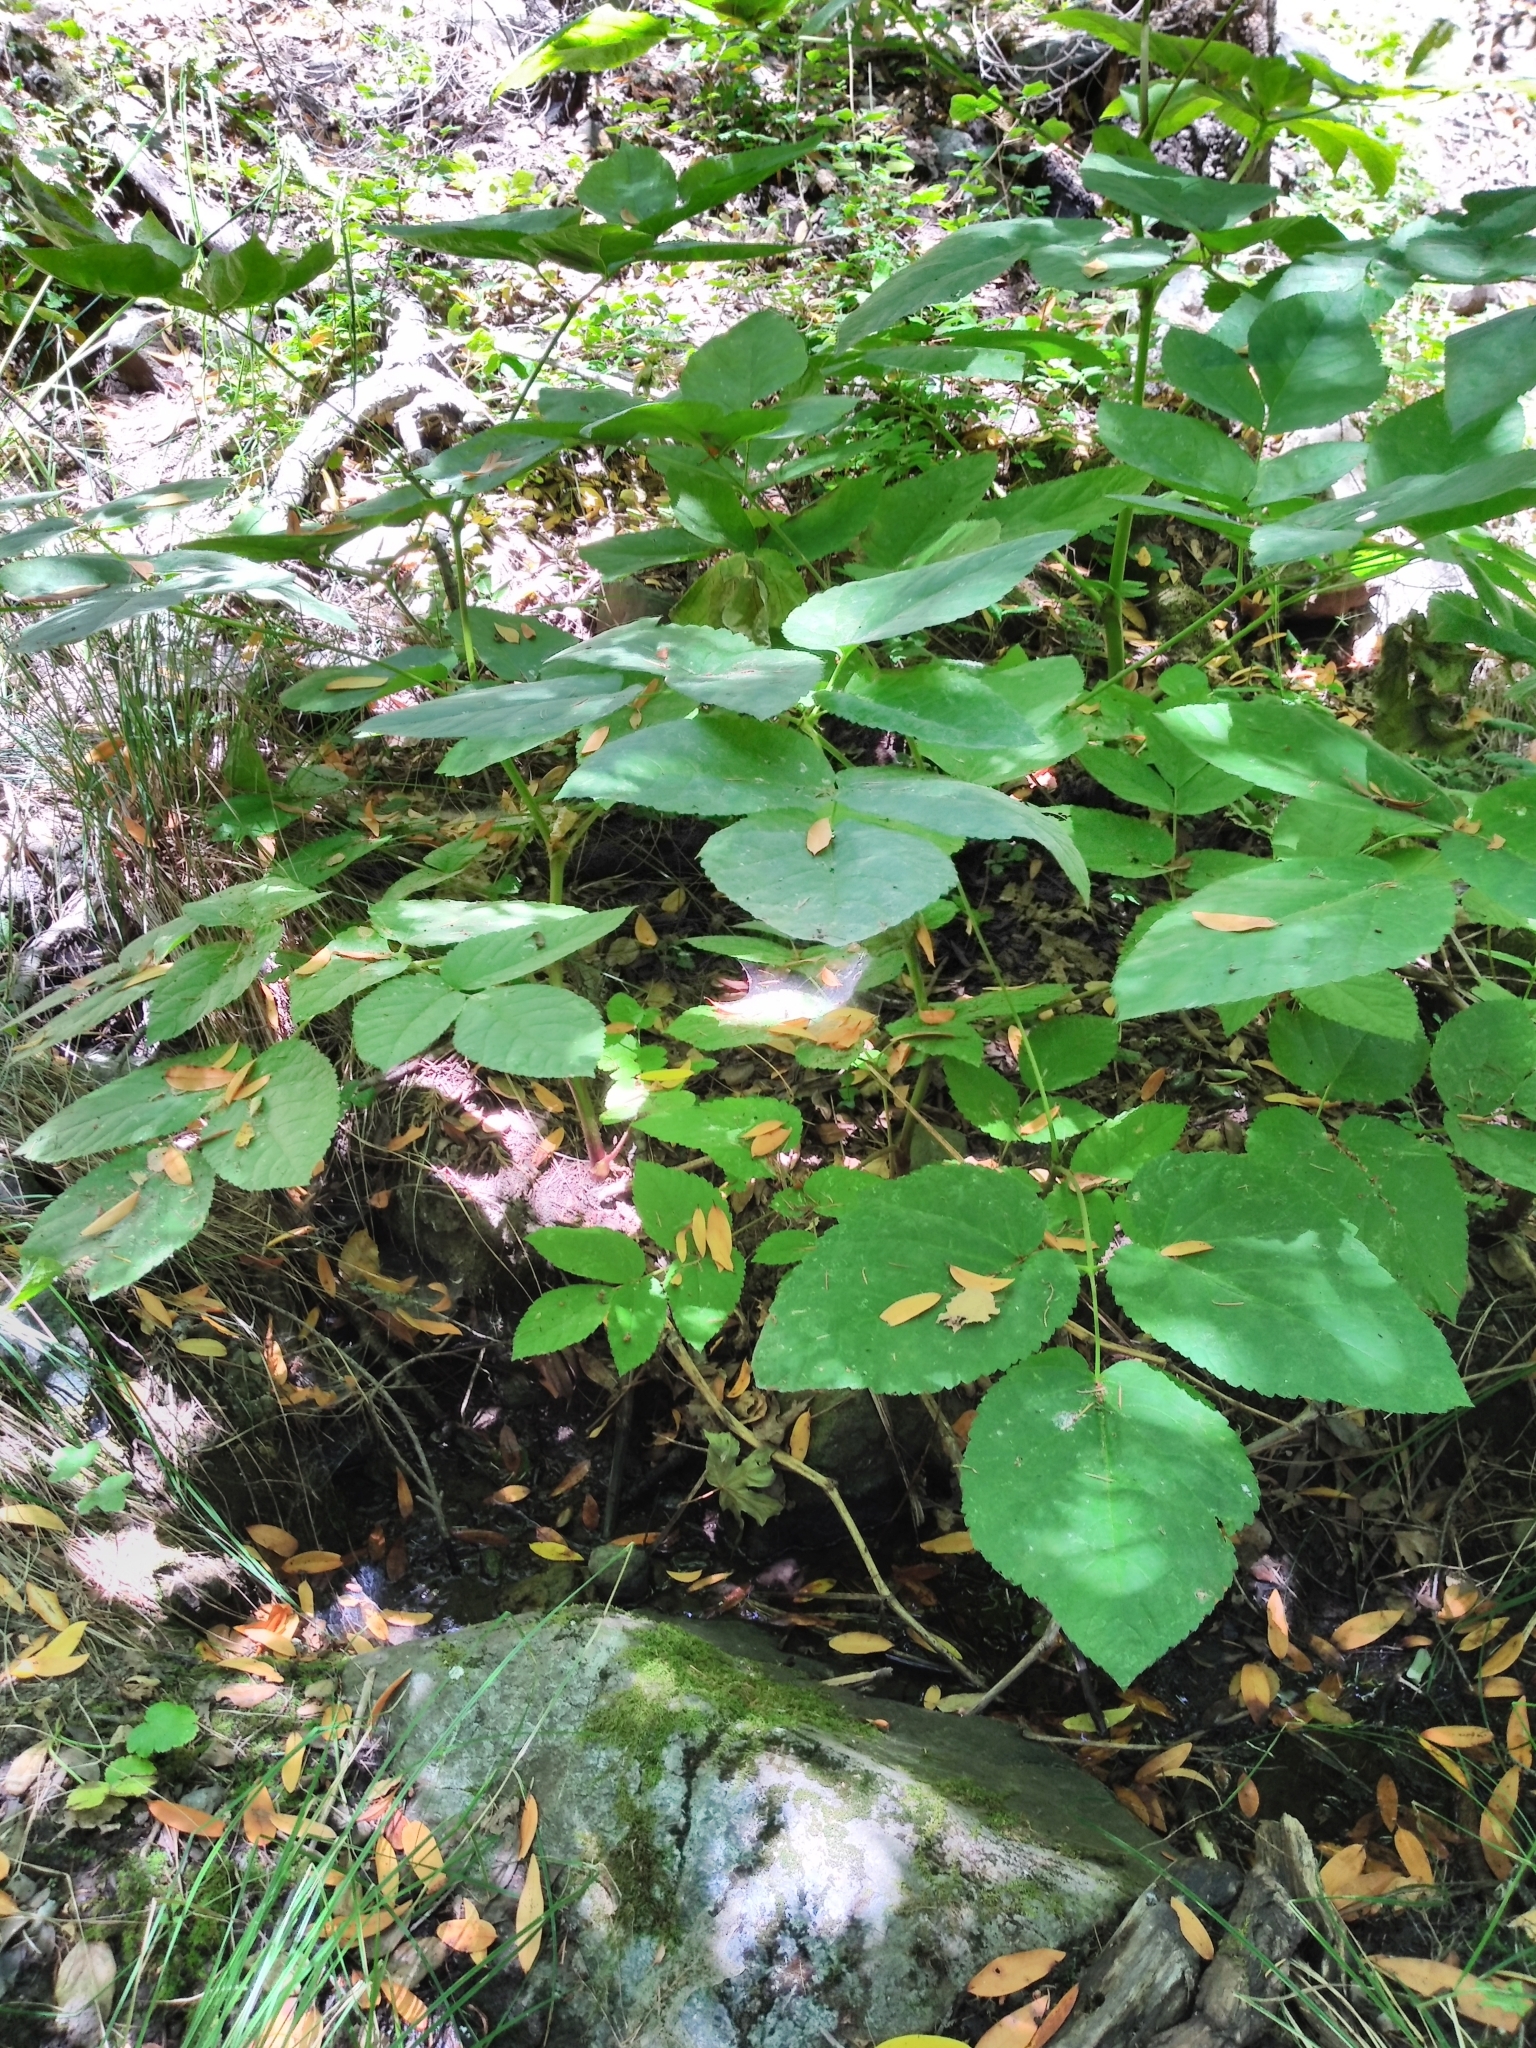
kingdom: Plantae
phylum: Tracheophyta
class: Magnoliopsida
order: Apiales
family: Araliaceae
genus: Aralia
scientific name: Aralia californica
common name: California-ginseng
